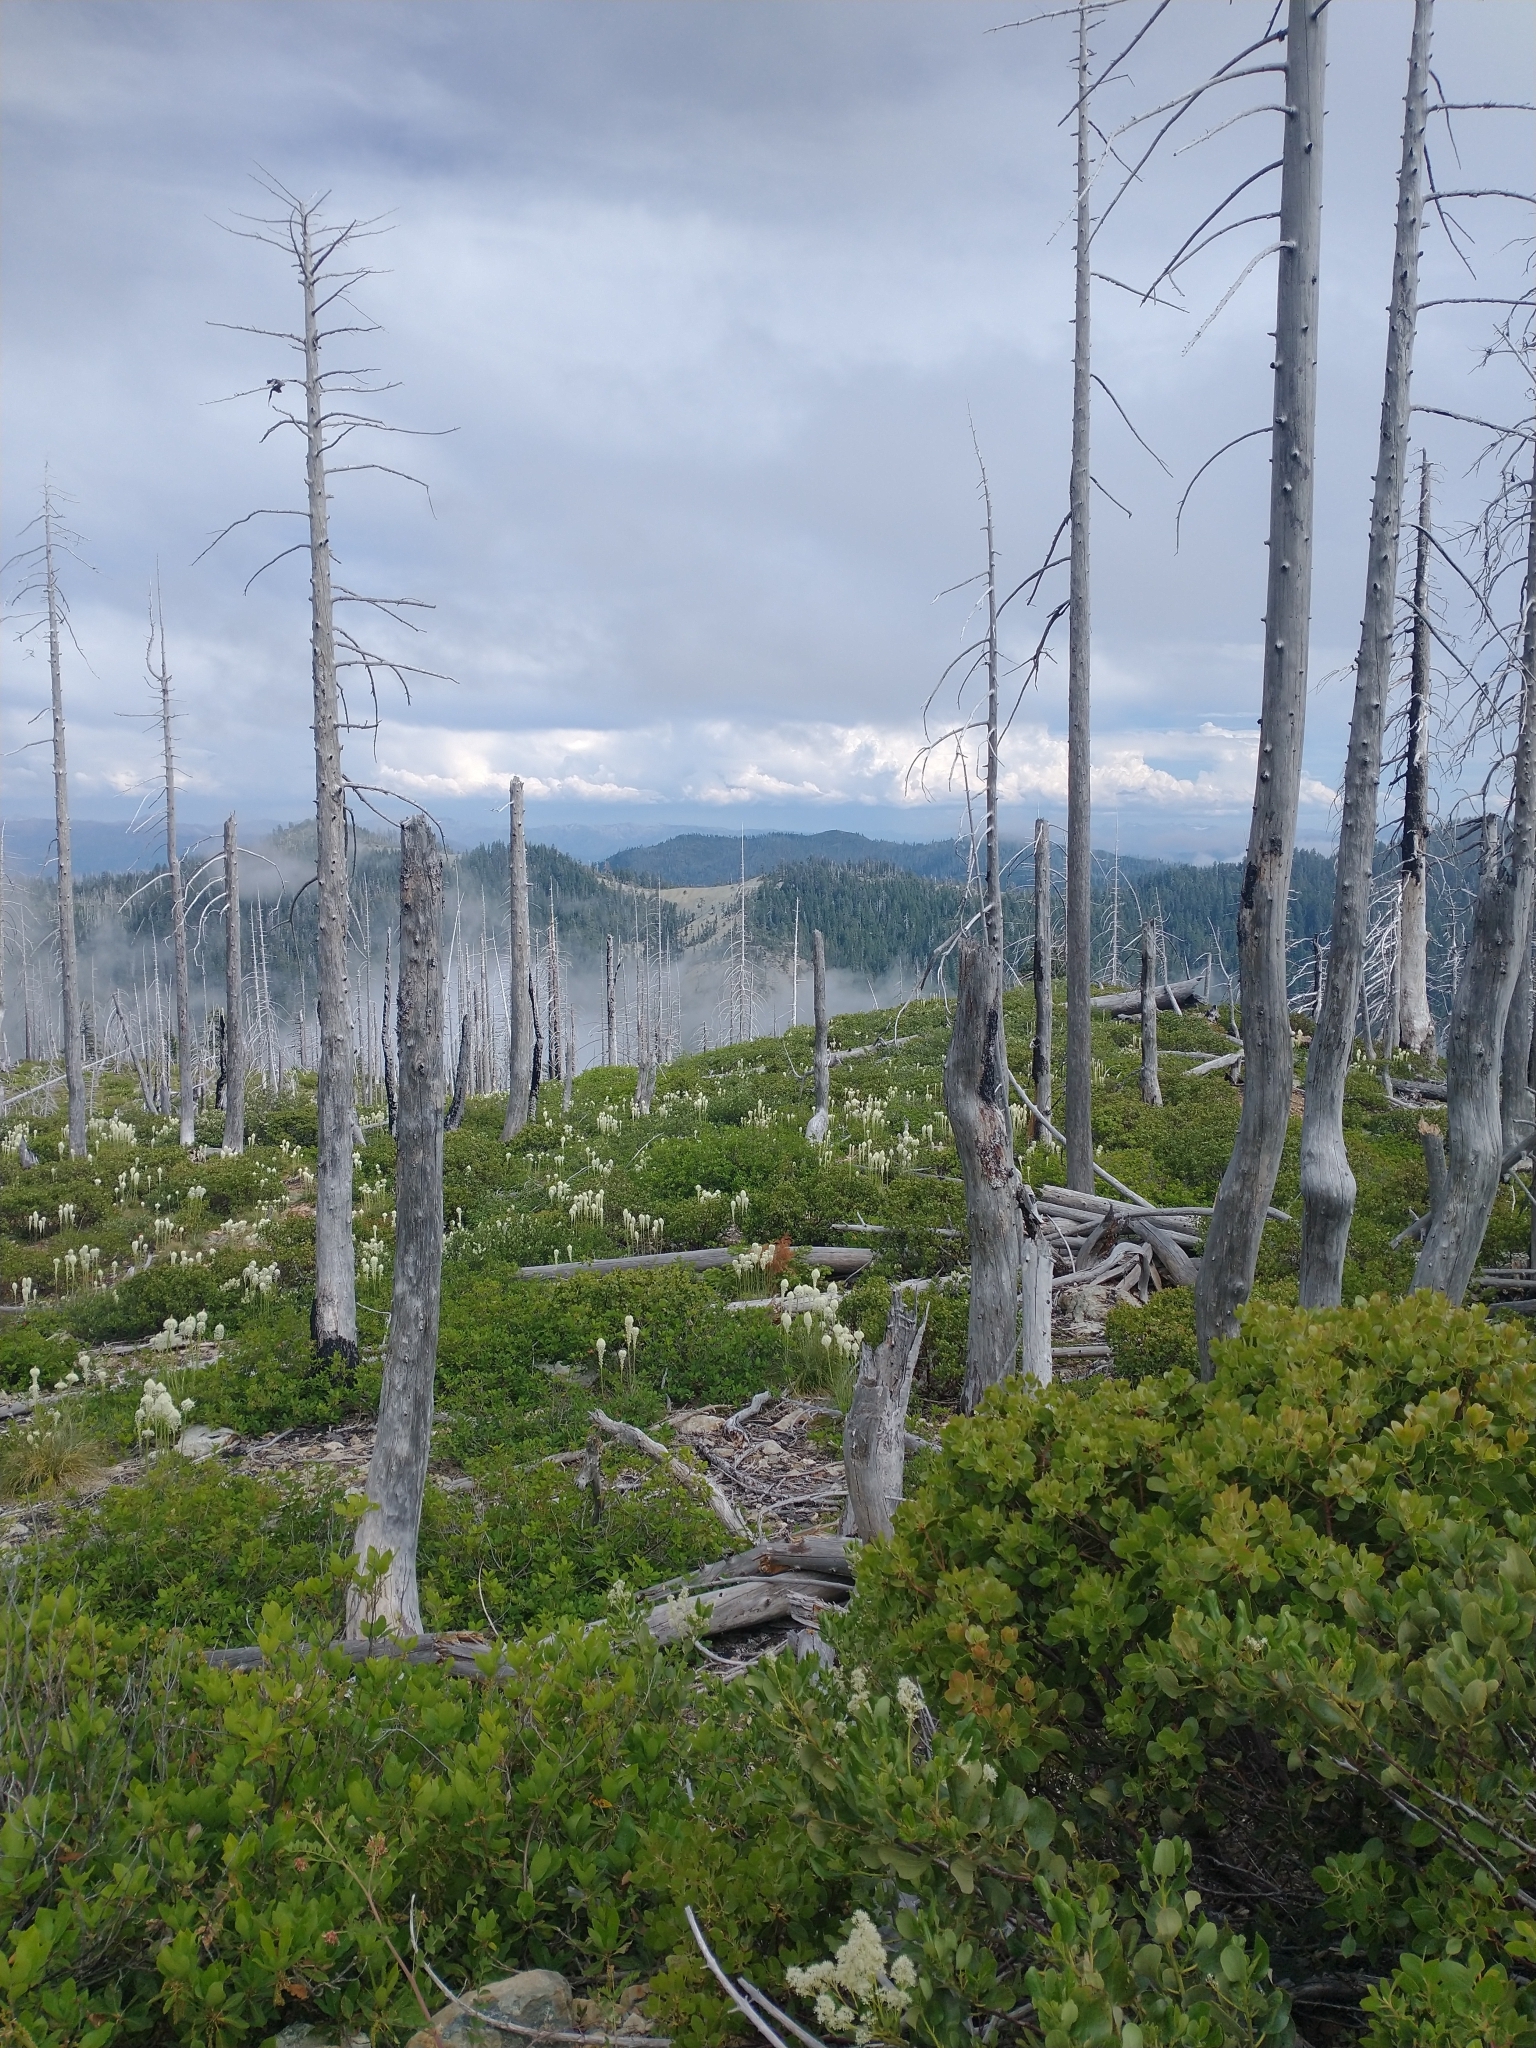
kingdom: Plantae
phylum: Tracheophyta
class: Liliopsida
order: Liliales
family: Melanthiaceae
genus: Xerophyllum
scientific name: Xerophyllum tenax
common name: Bear-grass
